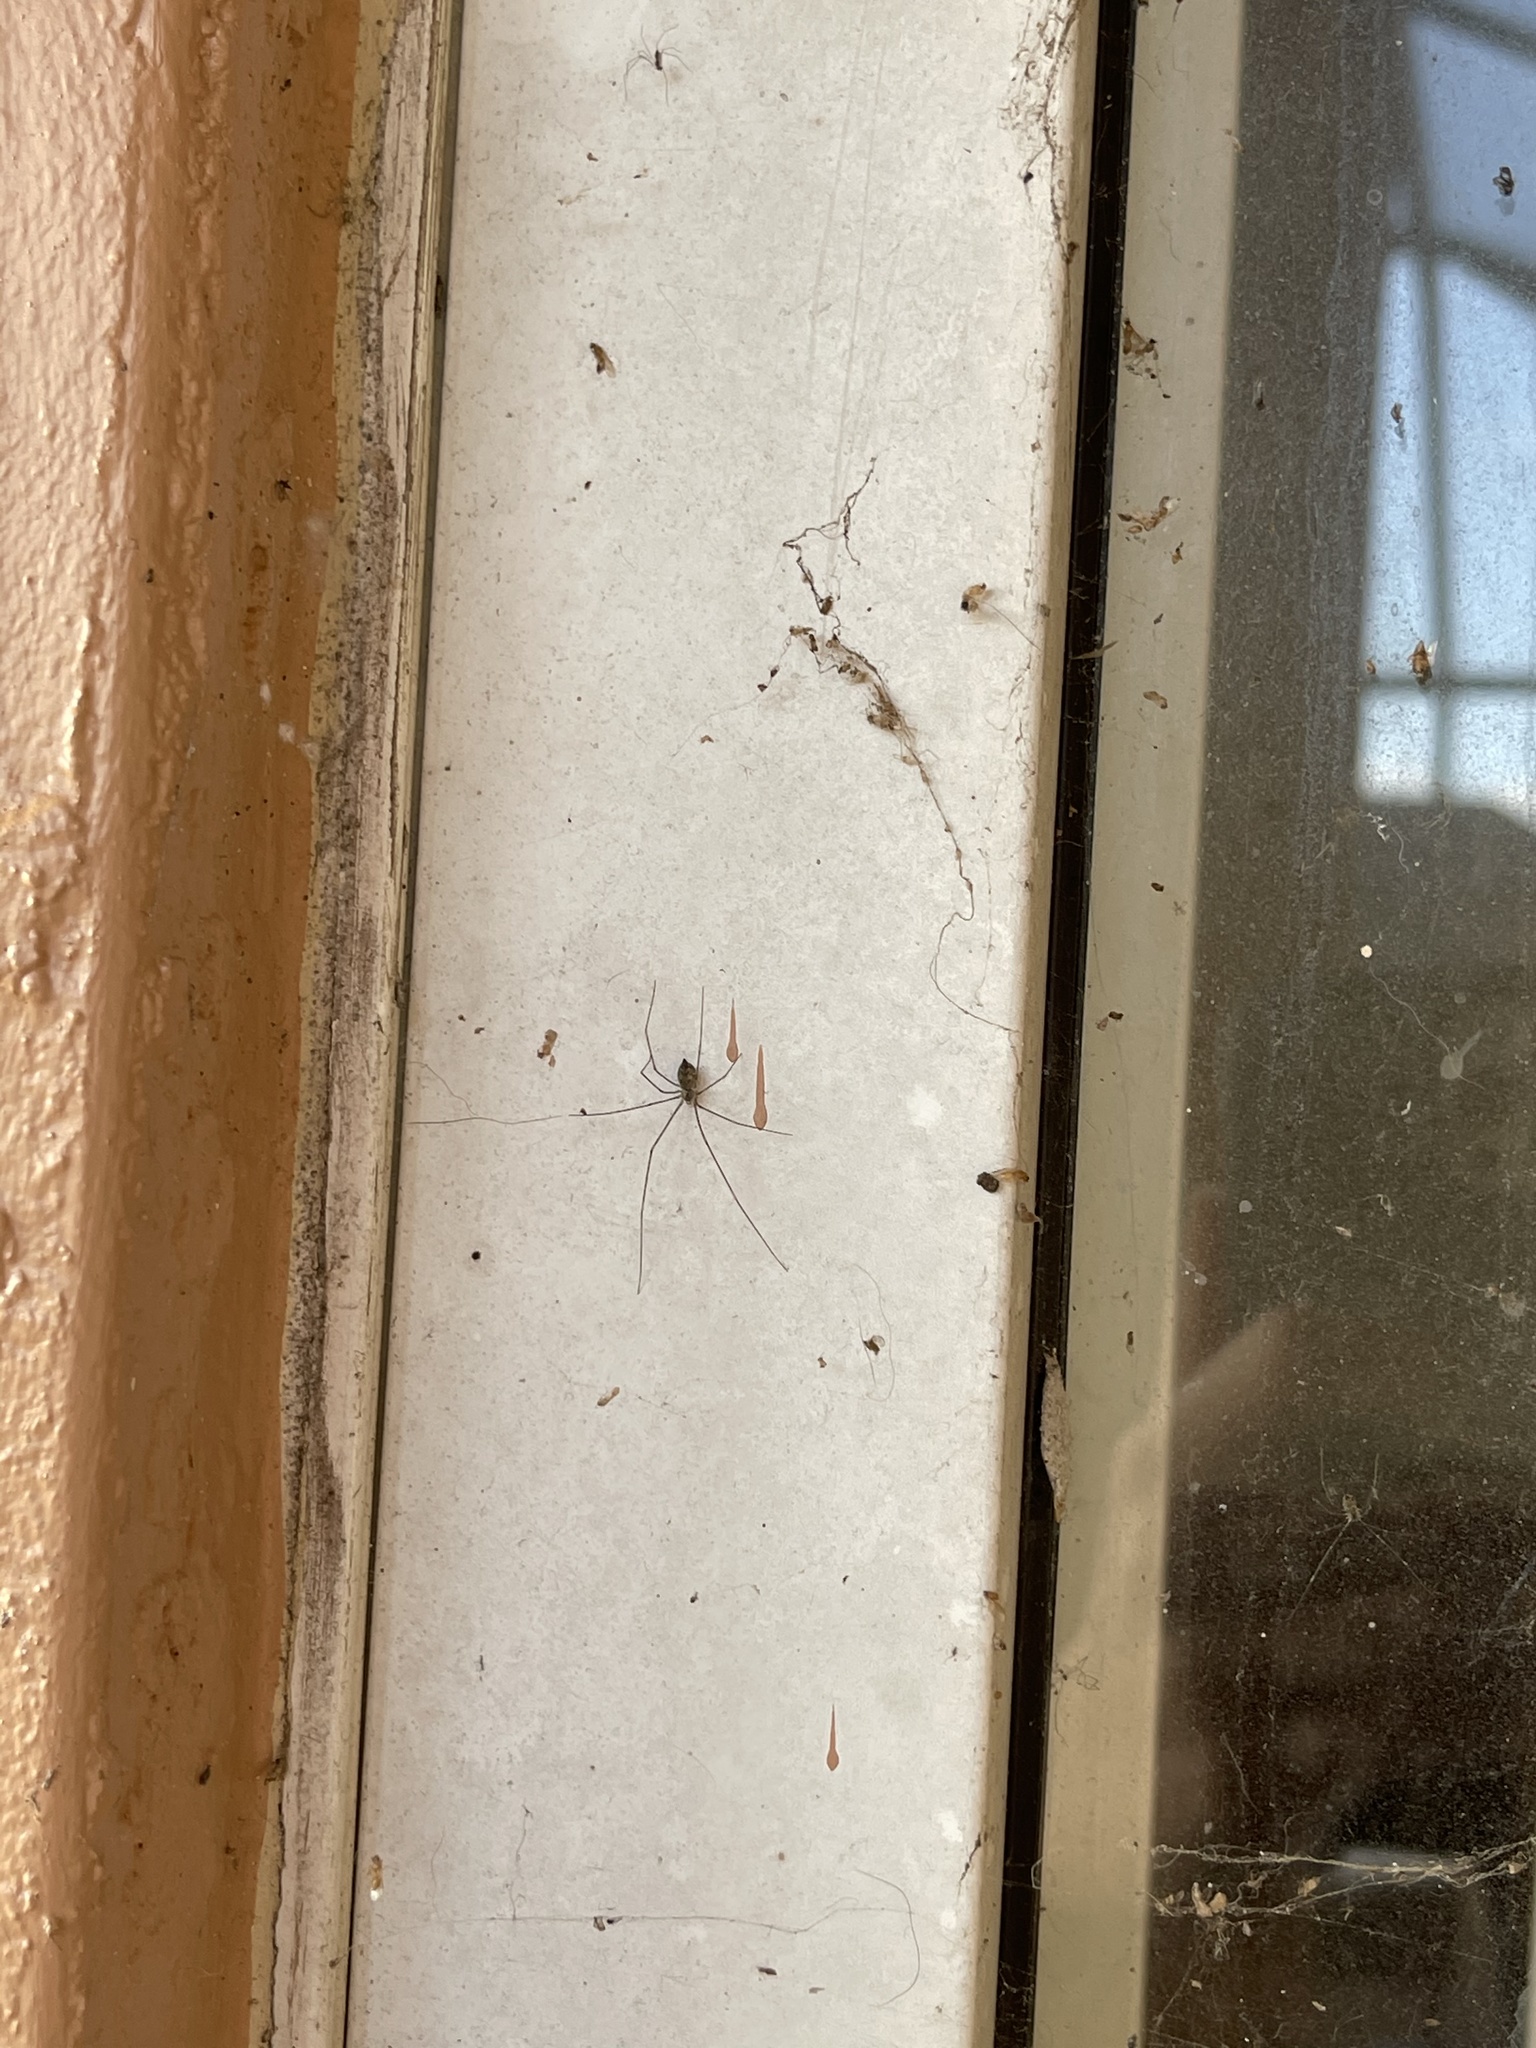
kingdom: Animalia
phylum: Arthropoda
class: Arachnida
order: Araneae
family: Pholcidae
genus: Crossopriza
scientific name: Crossopriza lyoni
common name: Cellar spiders
